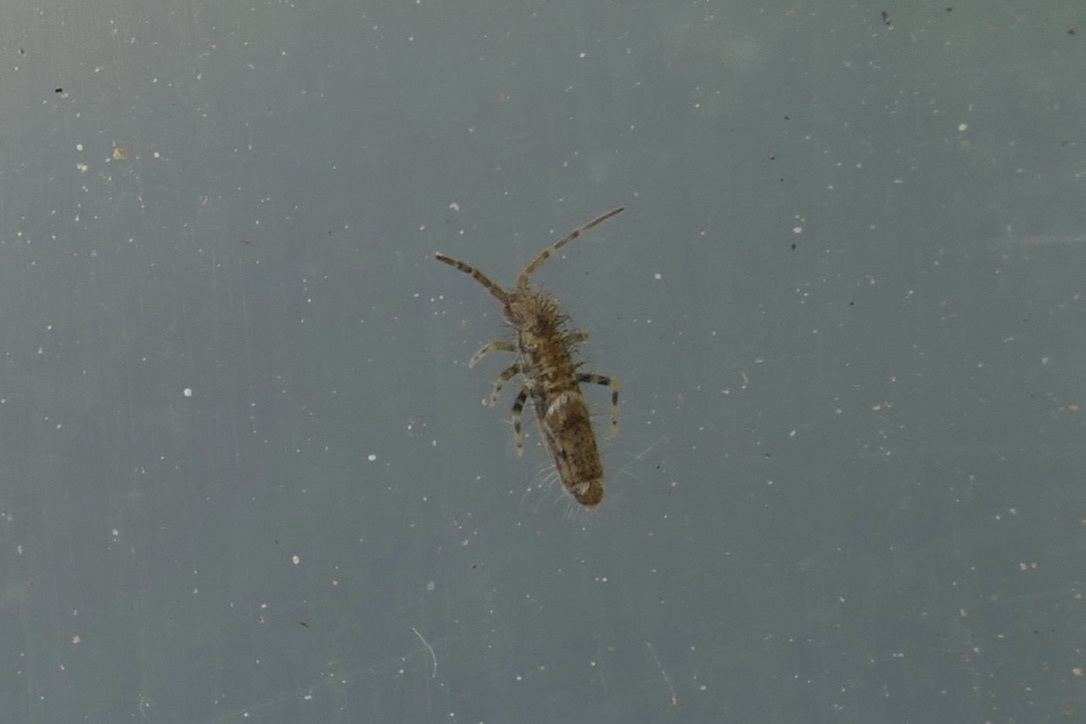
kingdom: Animalia
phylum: Arthropoda
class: Collembola
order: Entomobryomorpha
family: Entomobryidae
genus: Entomobrya
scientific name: Entomobrya dorsalis
